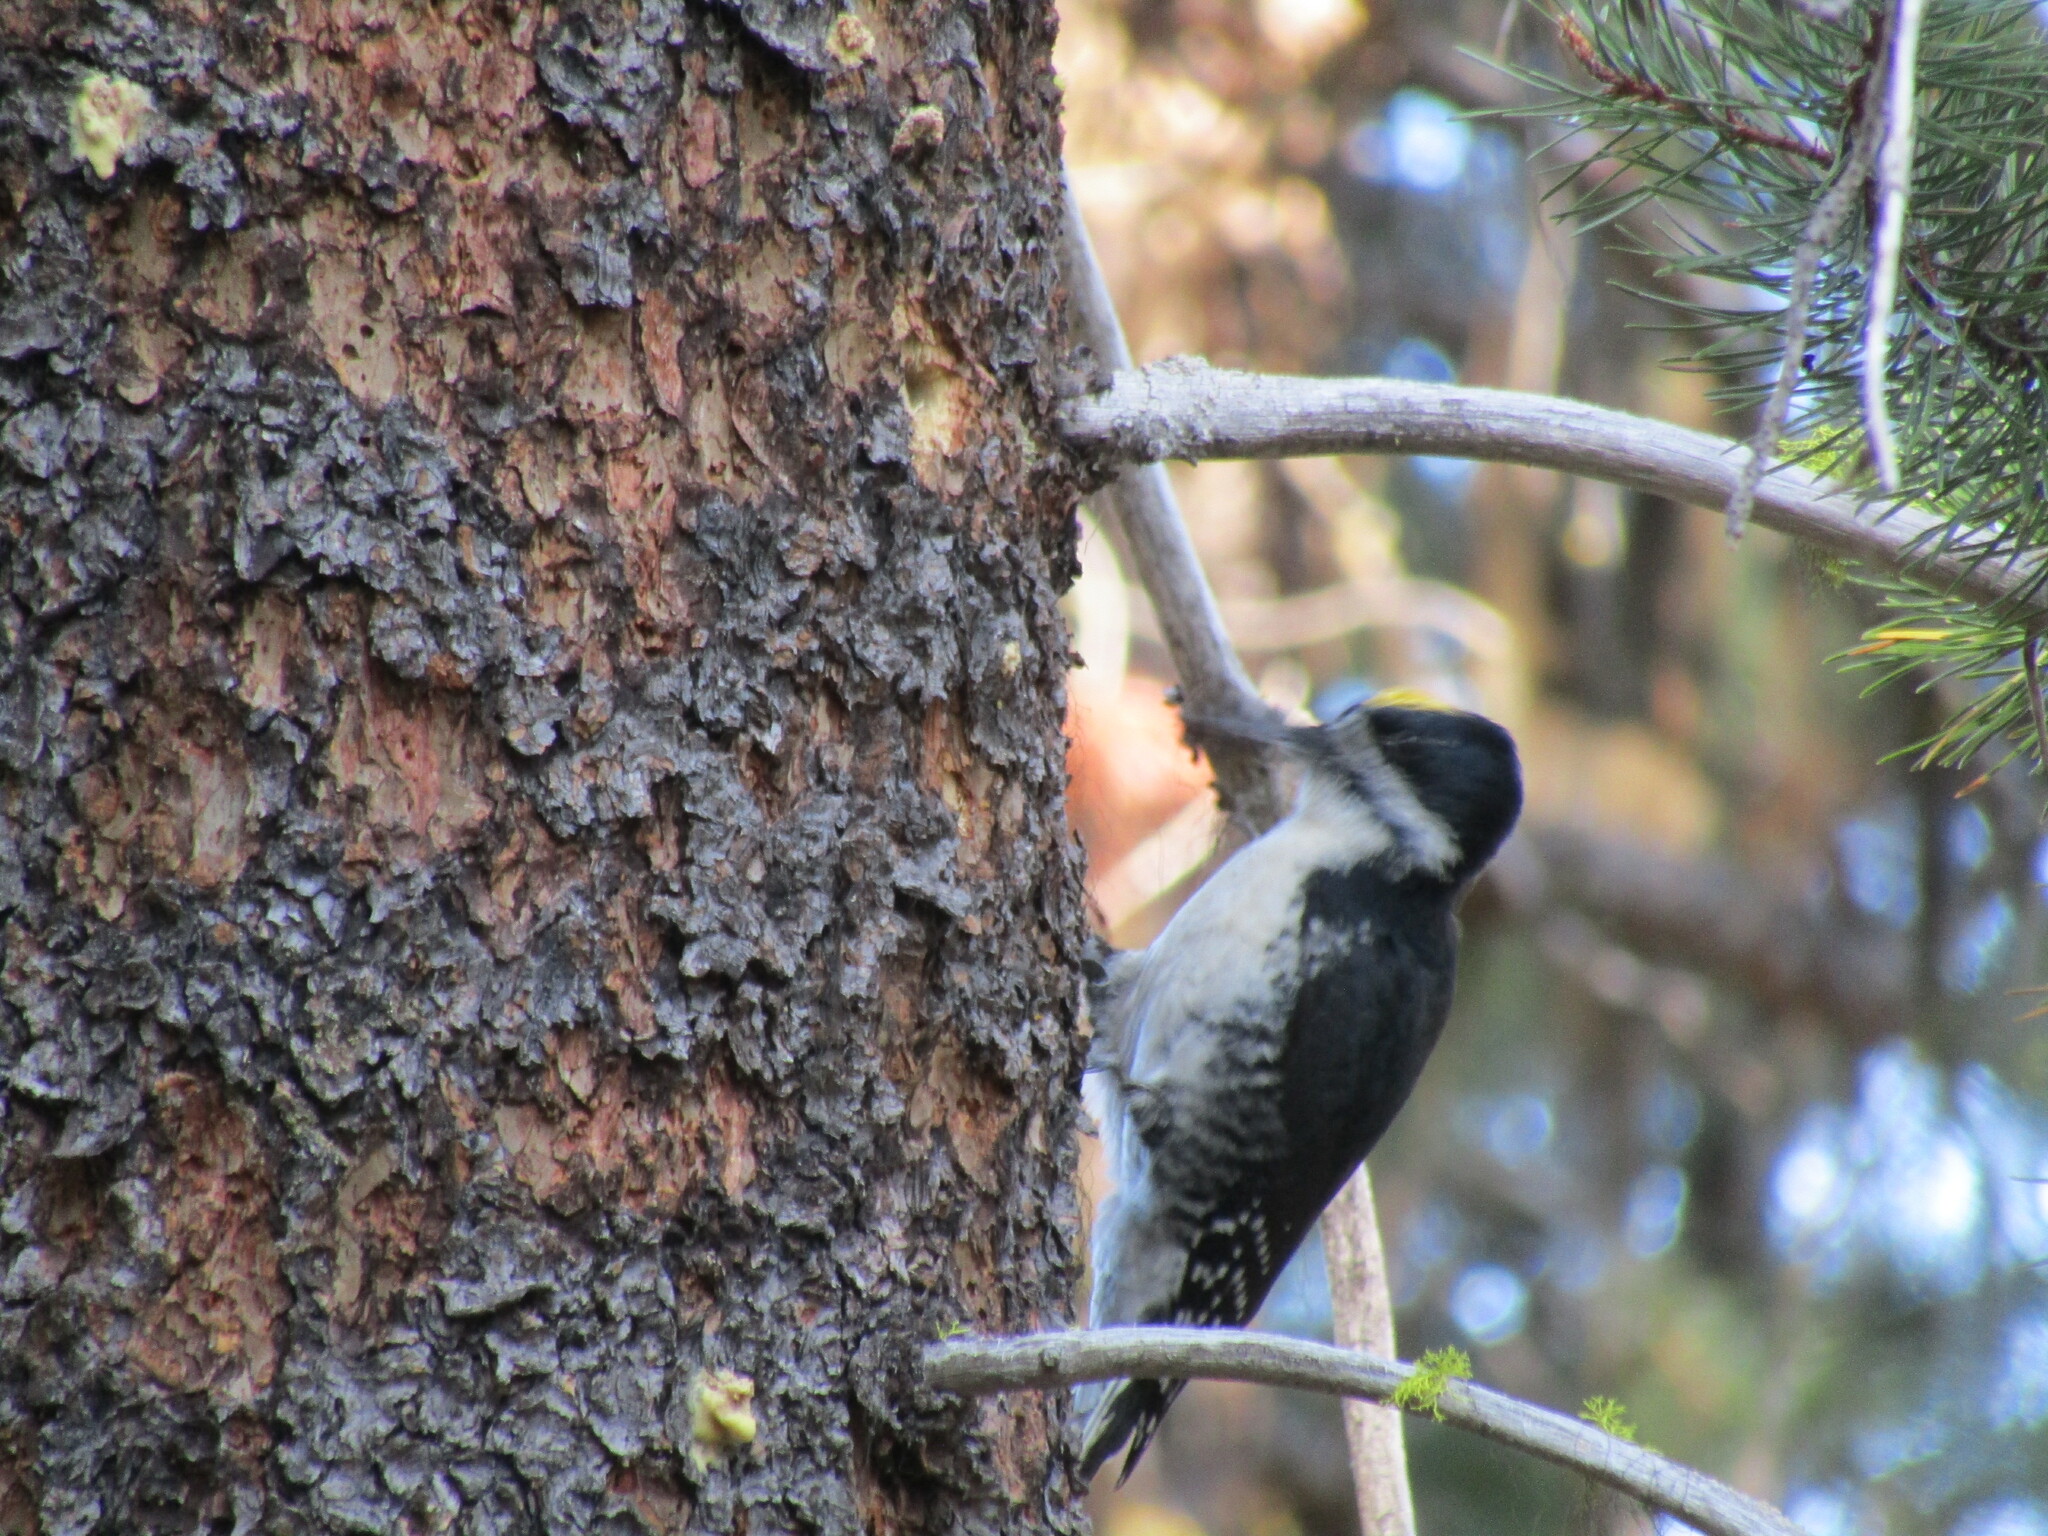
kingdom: Animalia
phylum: Chordata
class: Aves
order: Piciformes
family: Picidae
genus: Picoides
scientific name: Picoides arcticus
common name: Black-backed woodpecker
